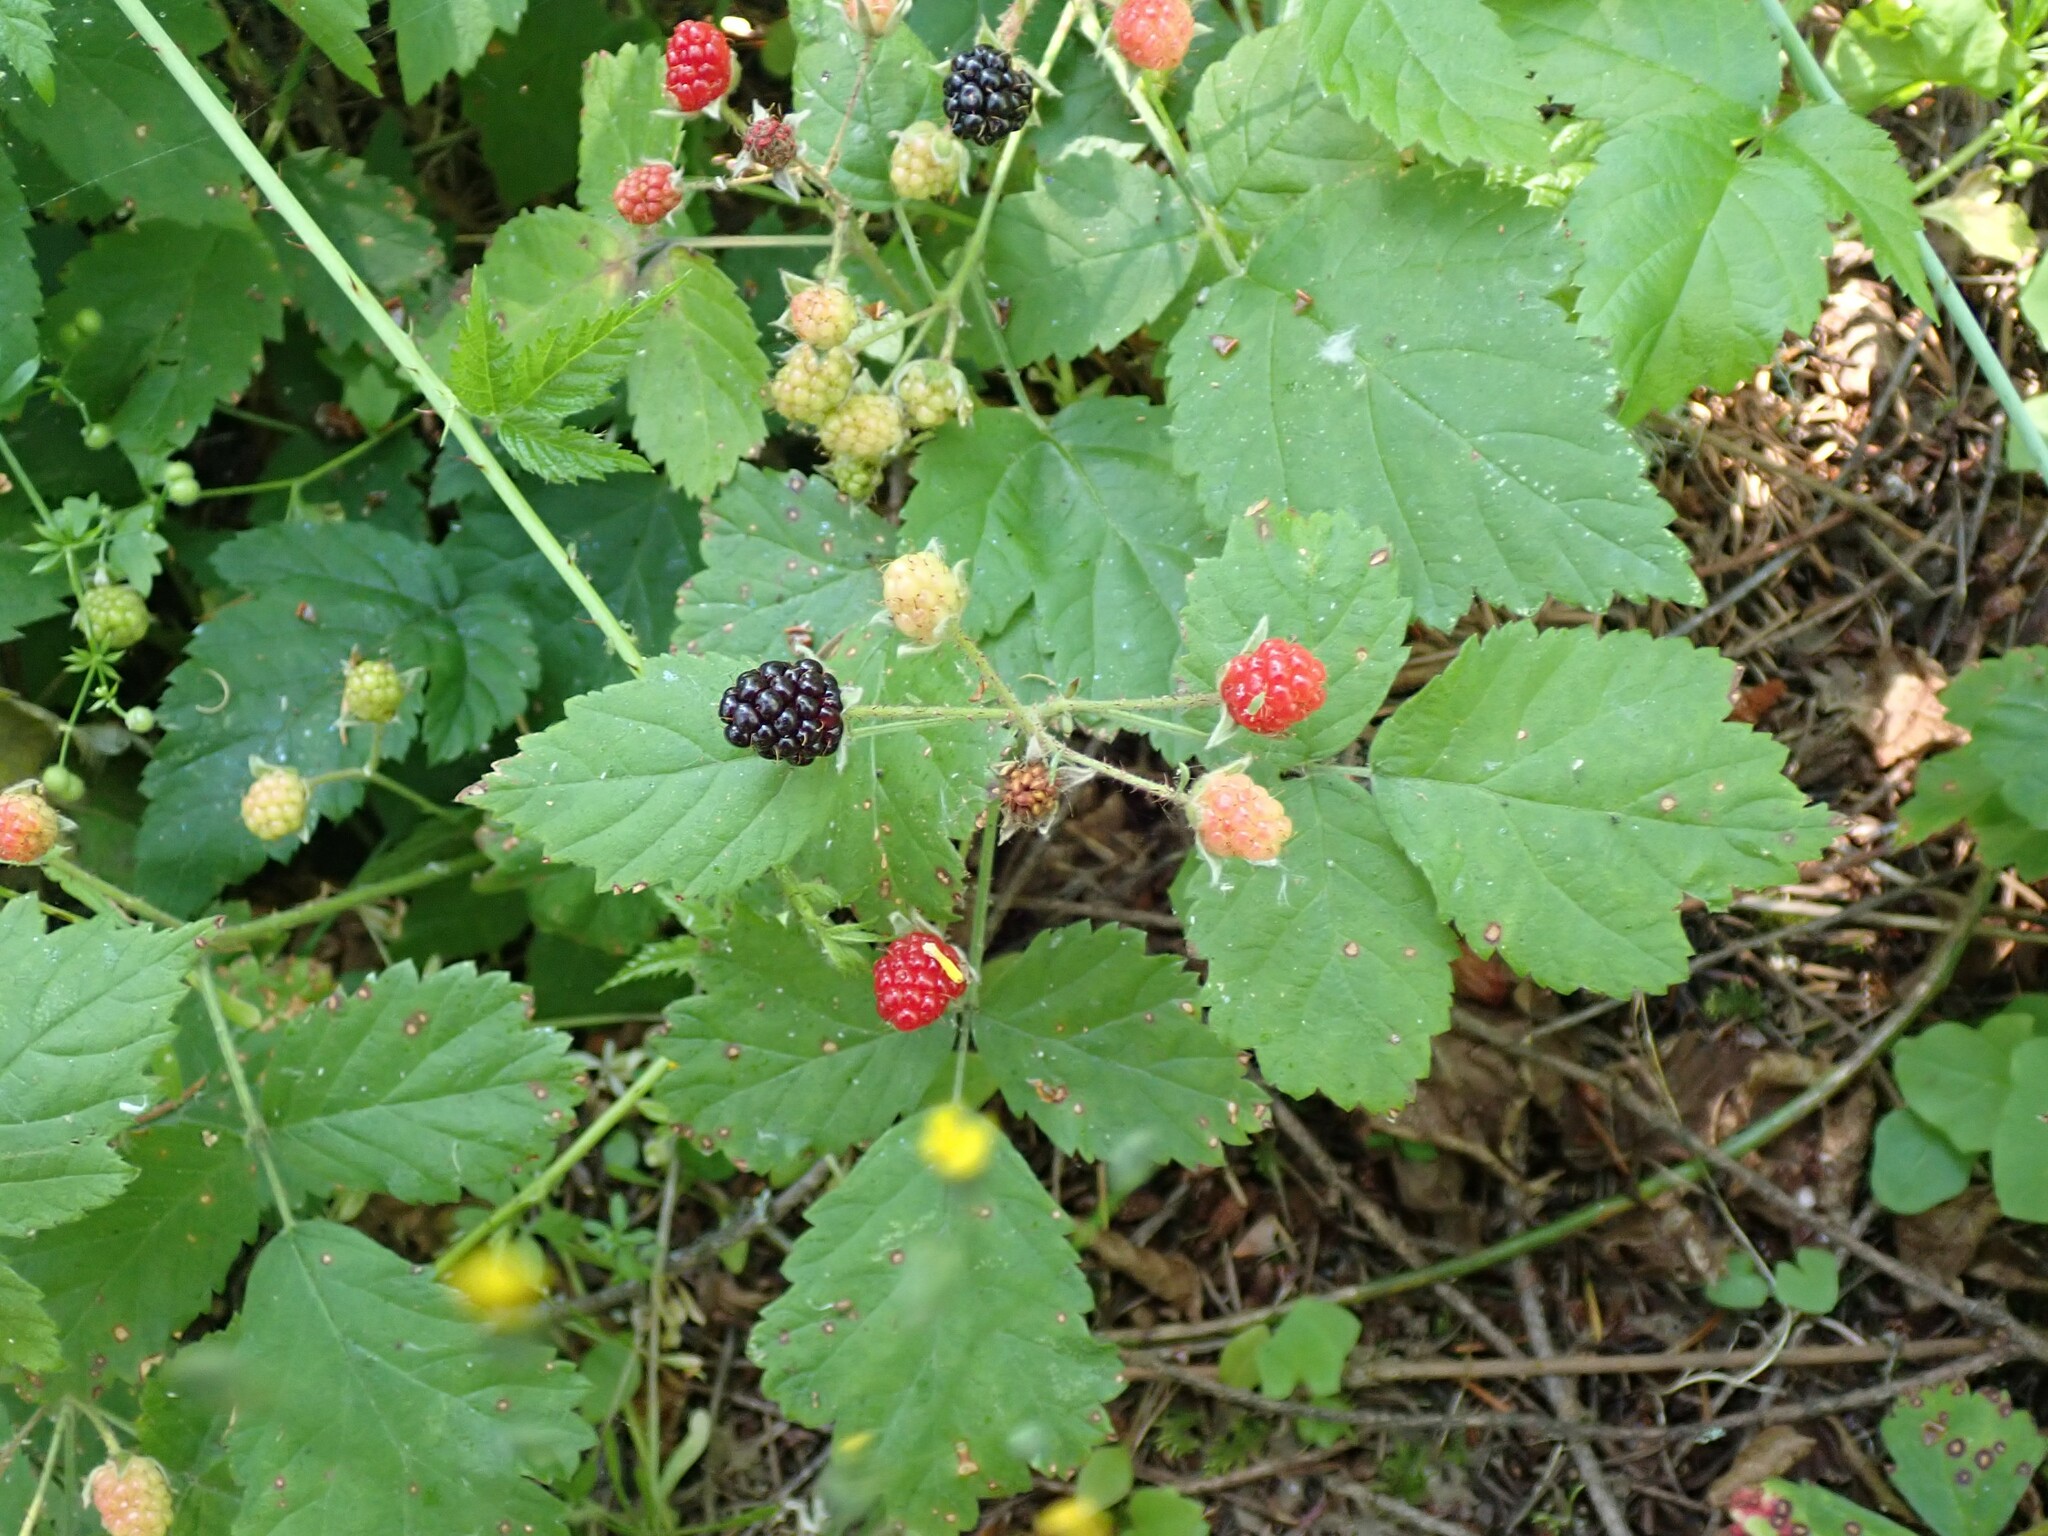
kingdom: Plantae
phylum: Tracheophyta
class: Magnoliopsida
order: Rosales
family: Rosaceae
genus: Rubus
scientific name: Rubus ursinus
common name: Pacific blackberry
